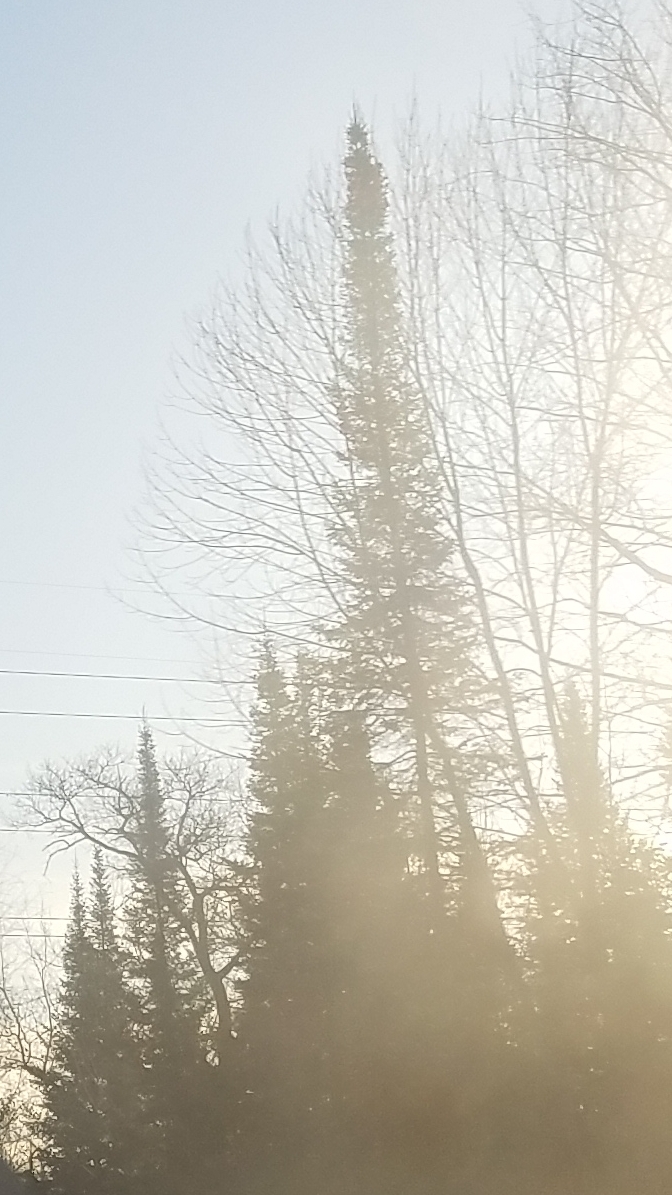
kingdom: Plantae
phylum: Tracheophyta
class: Pinopsida
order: Pinales
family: Pinaceae
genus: Picea
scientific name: Picea mariana
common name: Black spruce
